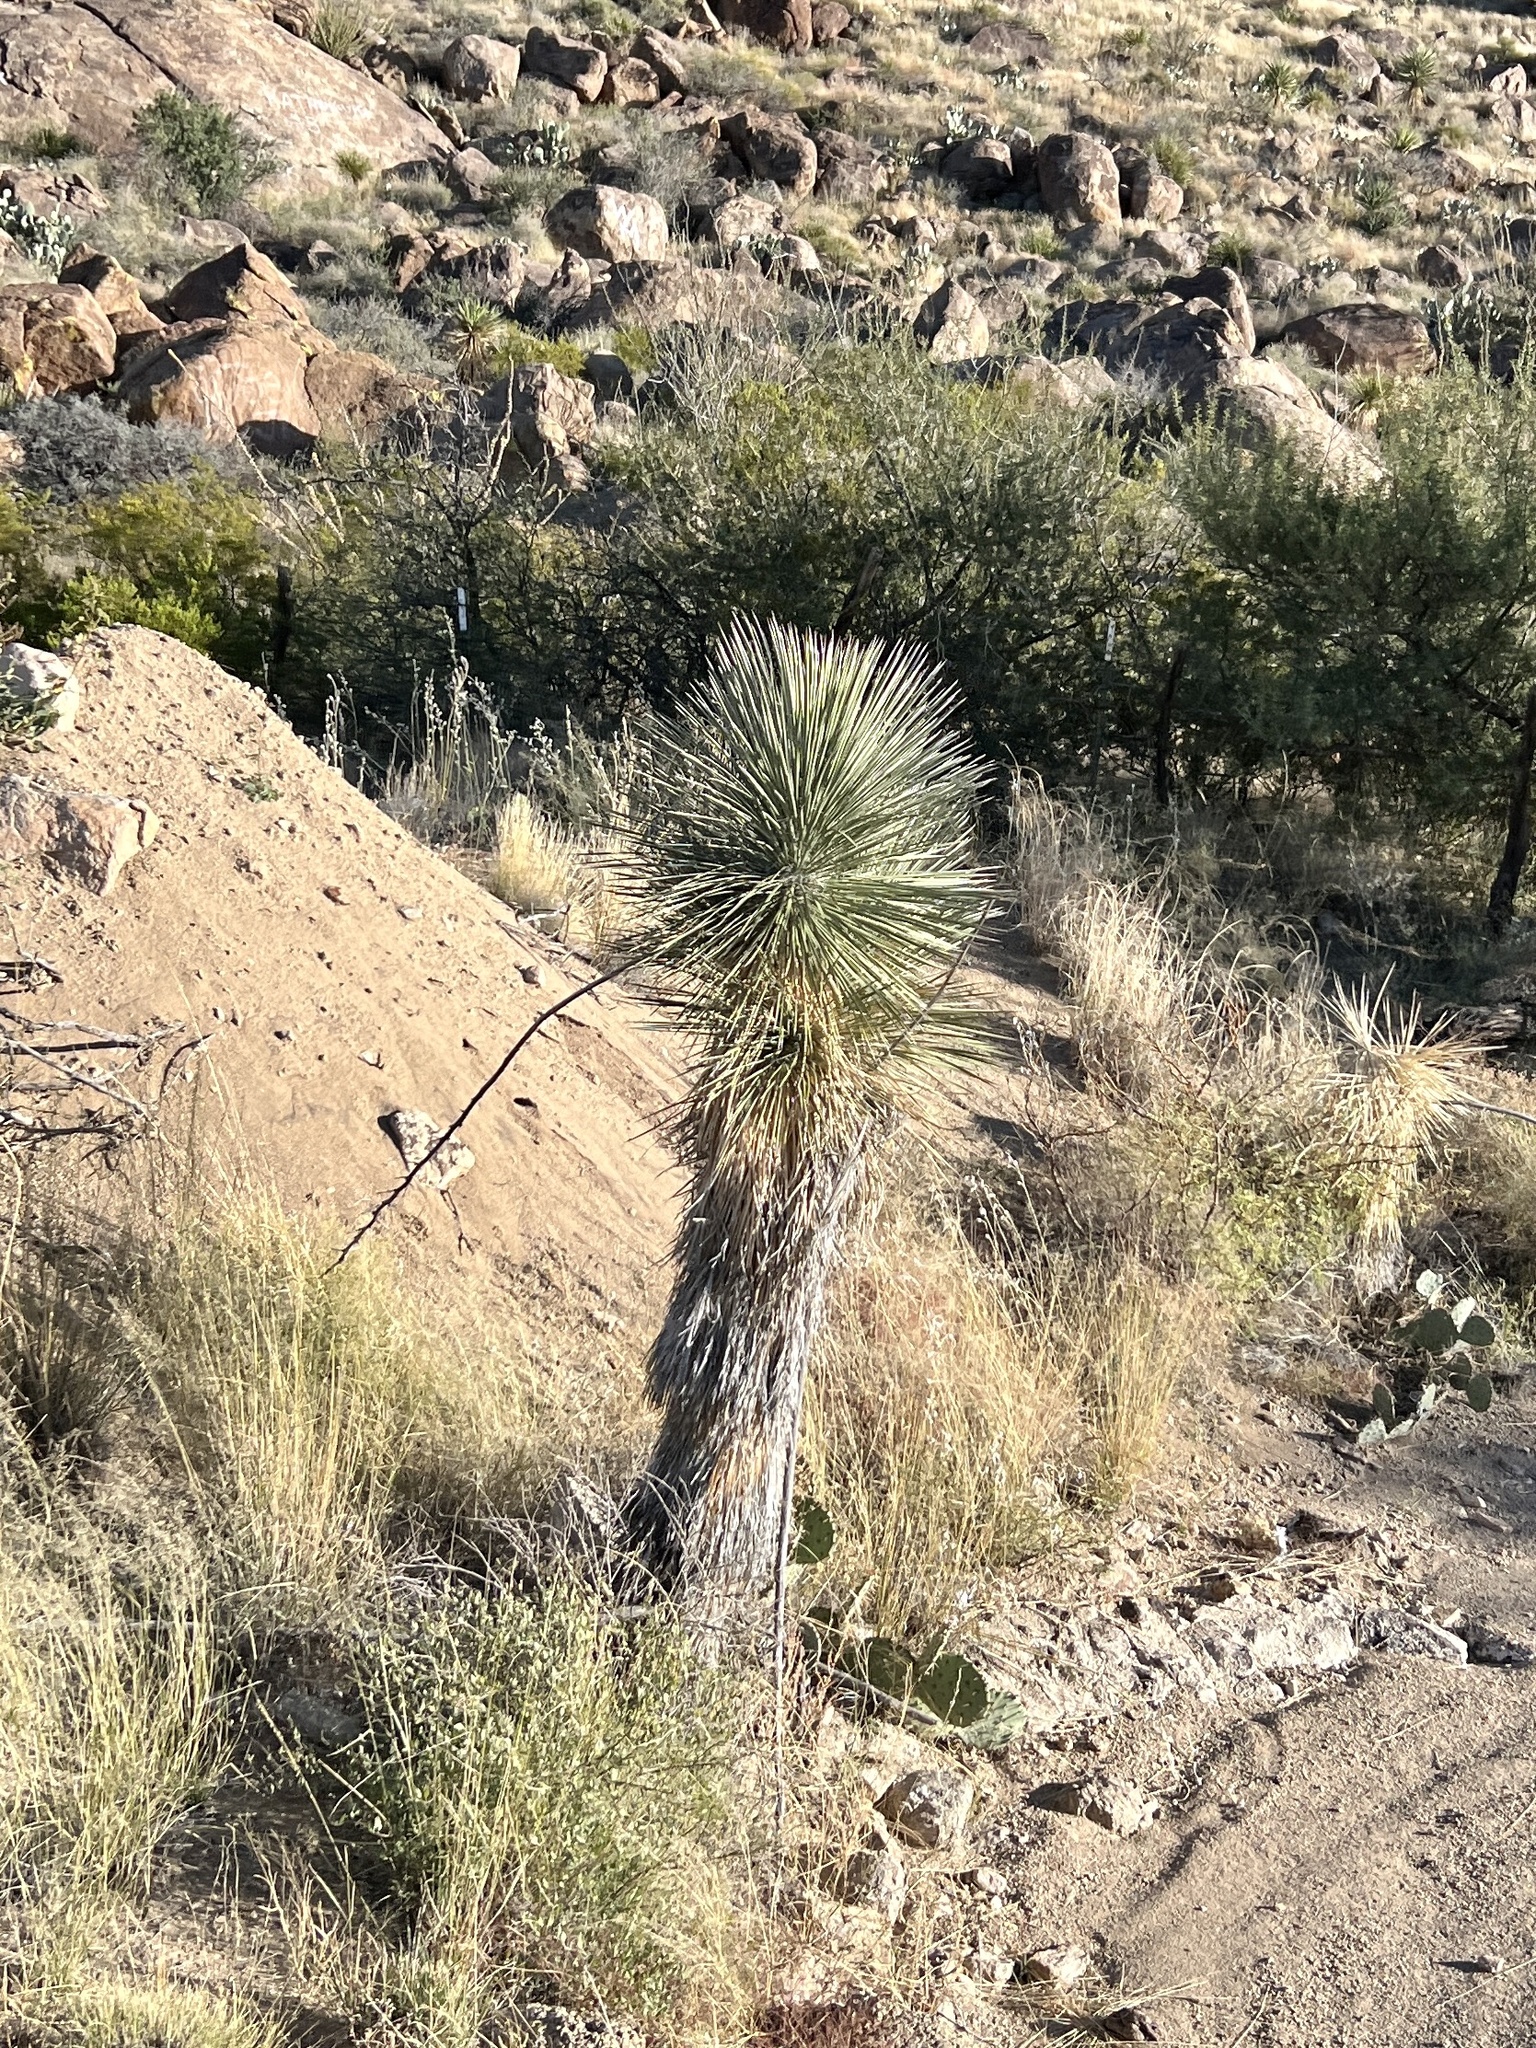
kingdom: Plantae
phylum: Tracheophyta
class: Liliopsida
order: Asparagales
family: Asparagaceae
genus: Yucca
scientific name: Yucca elata
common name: Palmella
